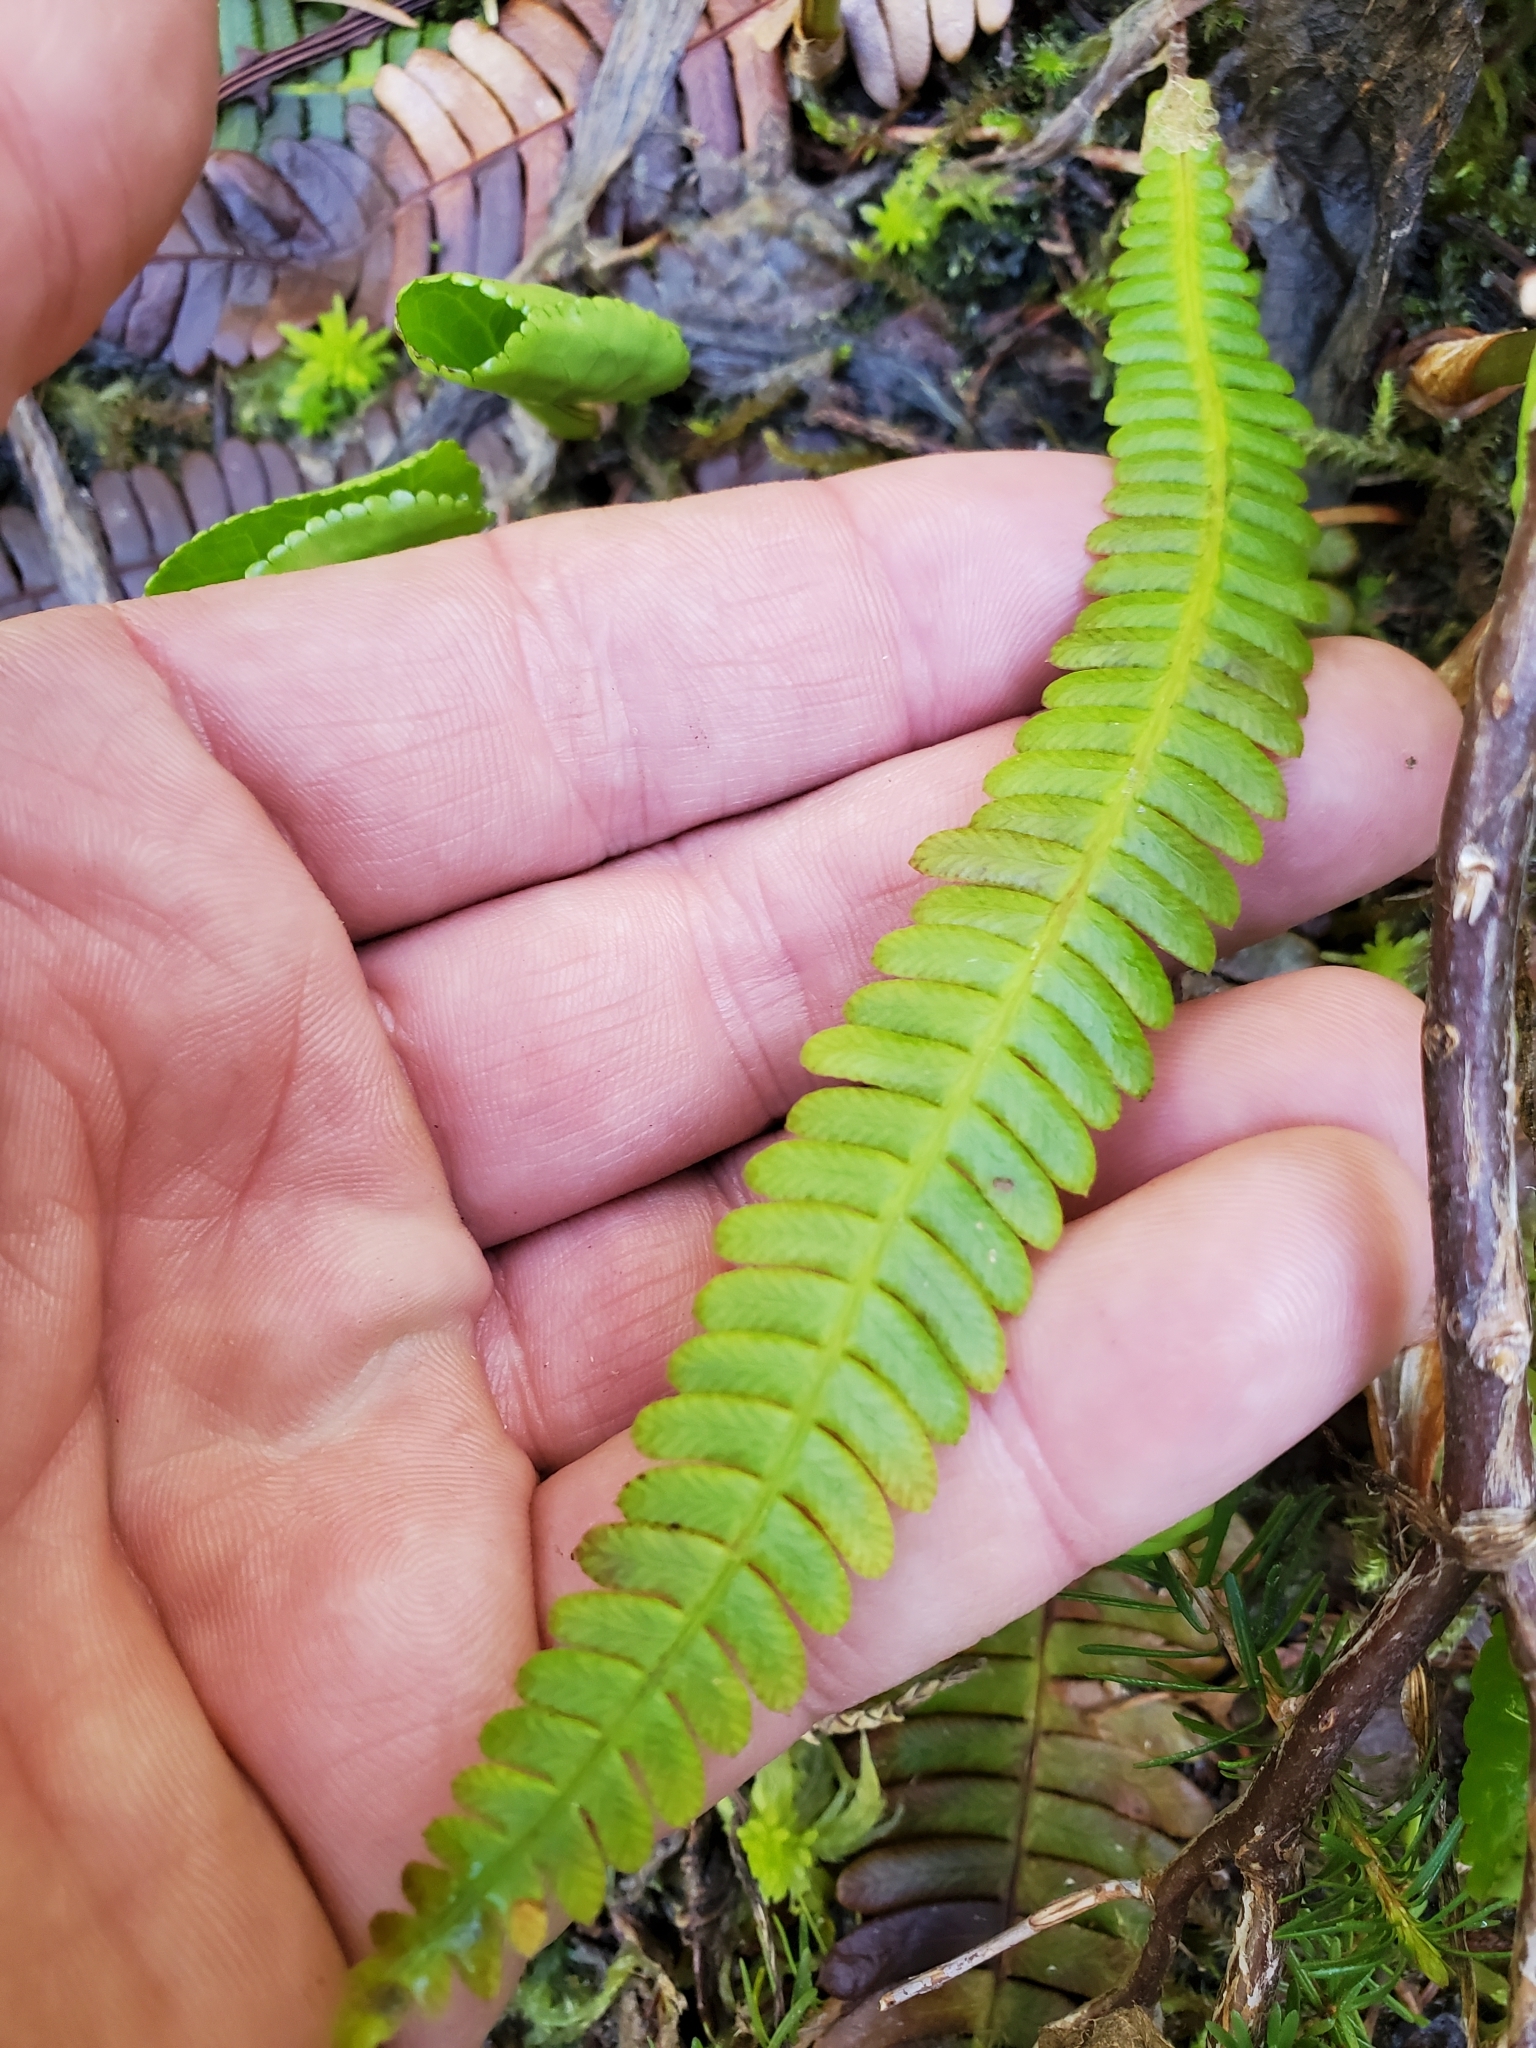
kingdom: Plantae
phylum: Tracheophyta
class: Polypodiopsida
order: Polypodiales
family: Blechnaceae
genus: Struthiopteris
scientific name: Struthiopteris spicant
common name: Deer fern
